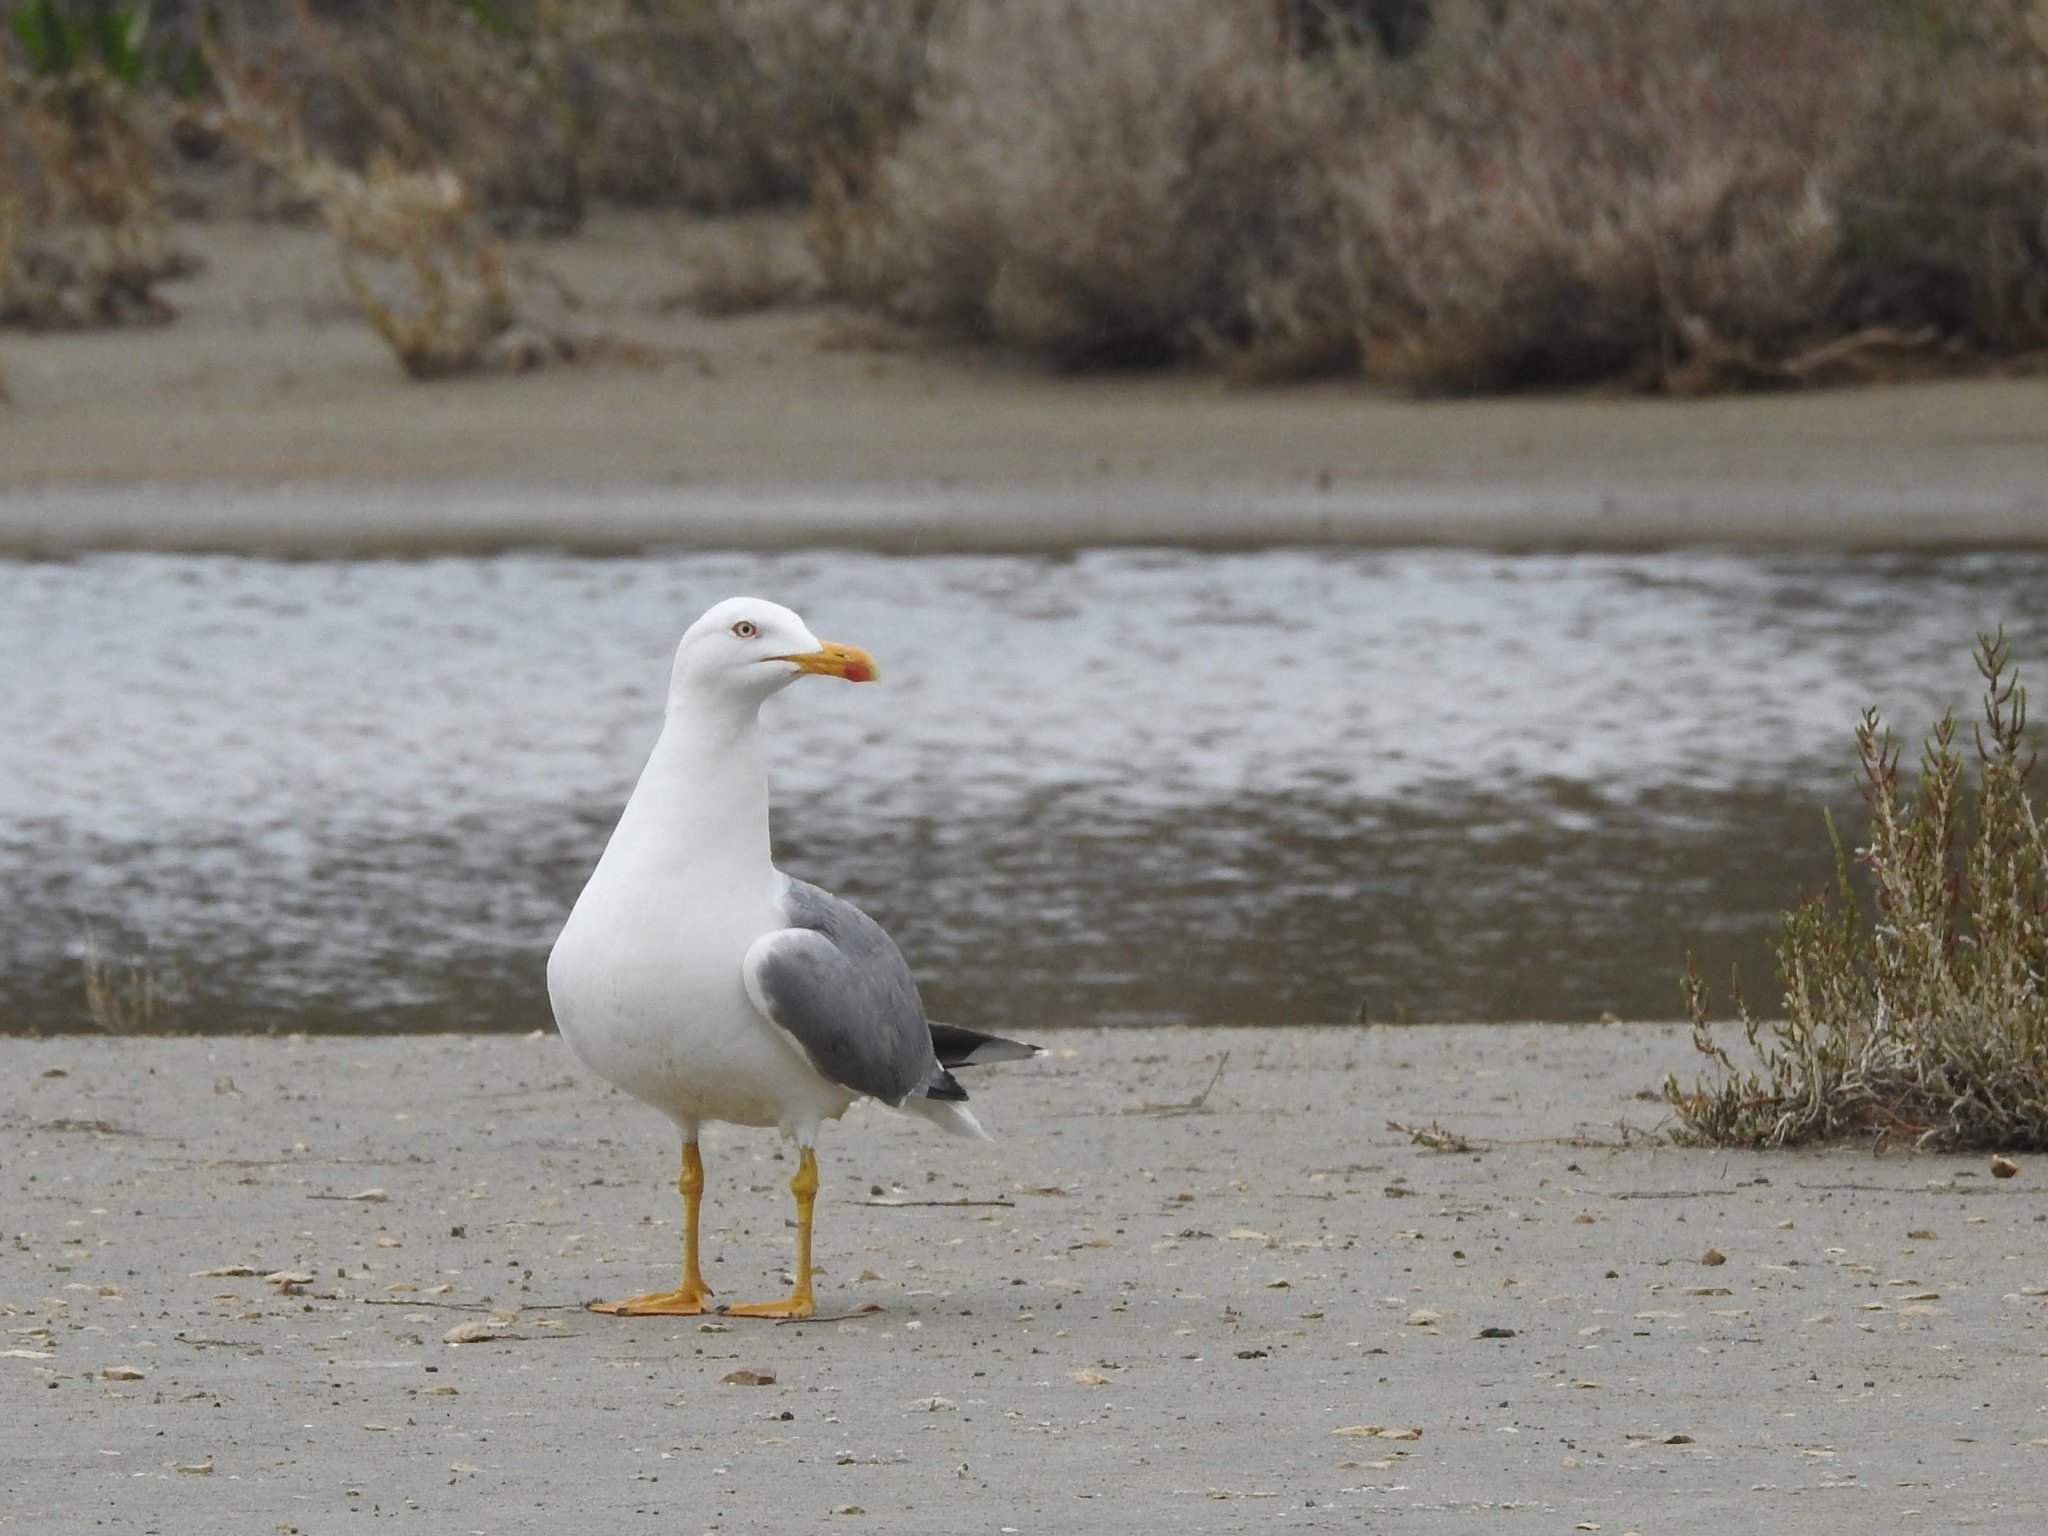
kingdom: Animalia
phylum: Chordata
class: Aves
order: Charadriiformes
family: Laridae
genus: Larus
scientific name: Larus michahellis
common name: Yellow-legged gull
